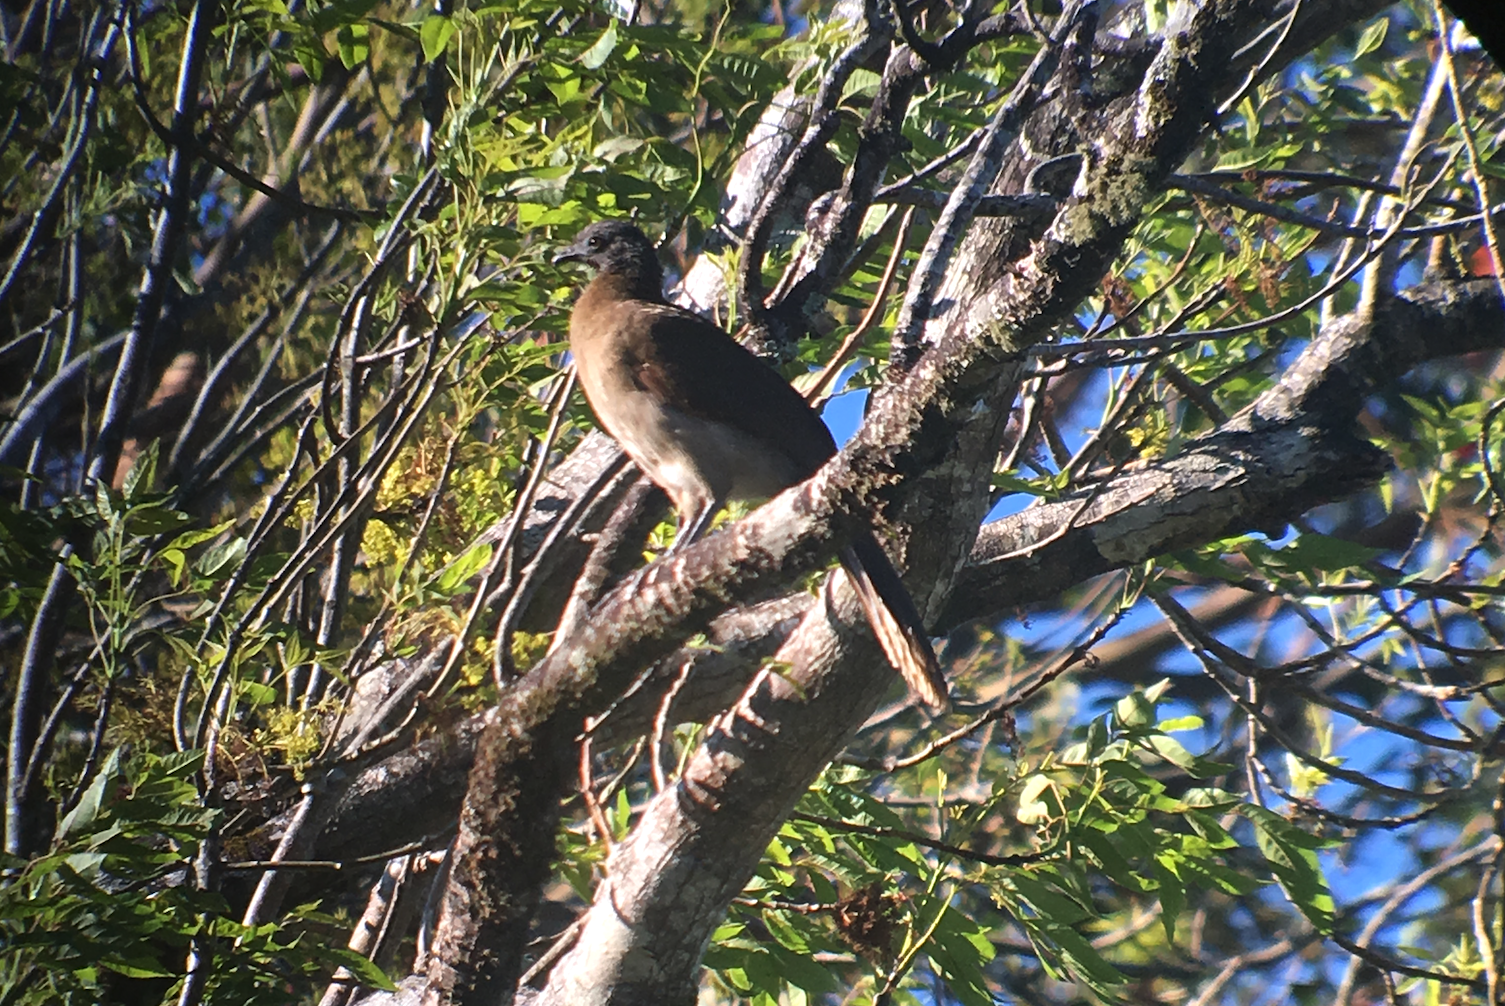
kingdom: Animalia
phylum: Chordata
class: Aves
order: Galliformes
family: Cracidae
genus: Ortalis
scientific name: Ortalis cinereiceps
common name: Grey-headed chachalaca
